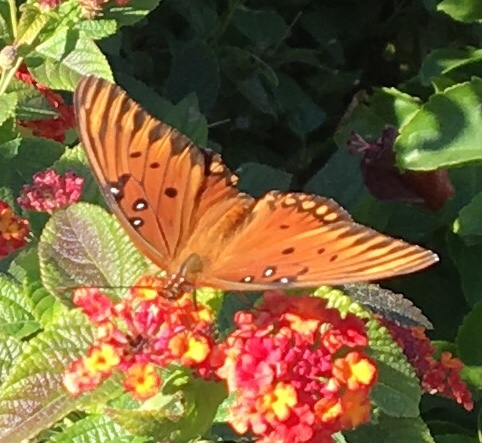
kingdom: Animalia
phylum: Arthropoda
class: Insecta
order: Lepidoptera
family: Nymphalidae
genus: Dione
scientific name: Dione vanillae
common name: Gulf fritillary
